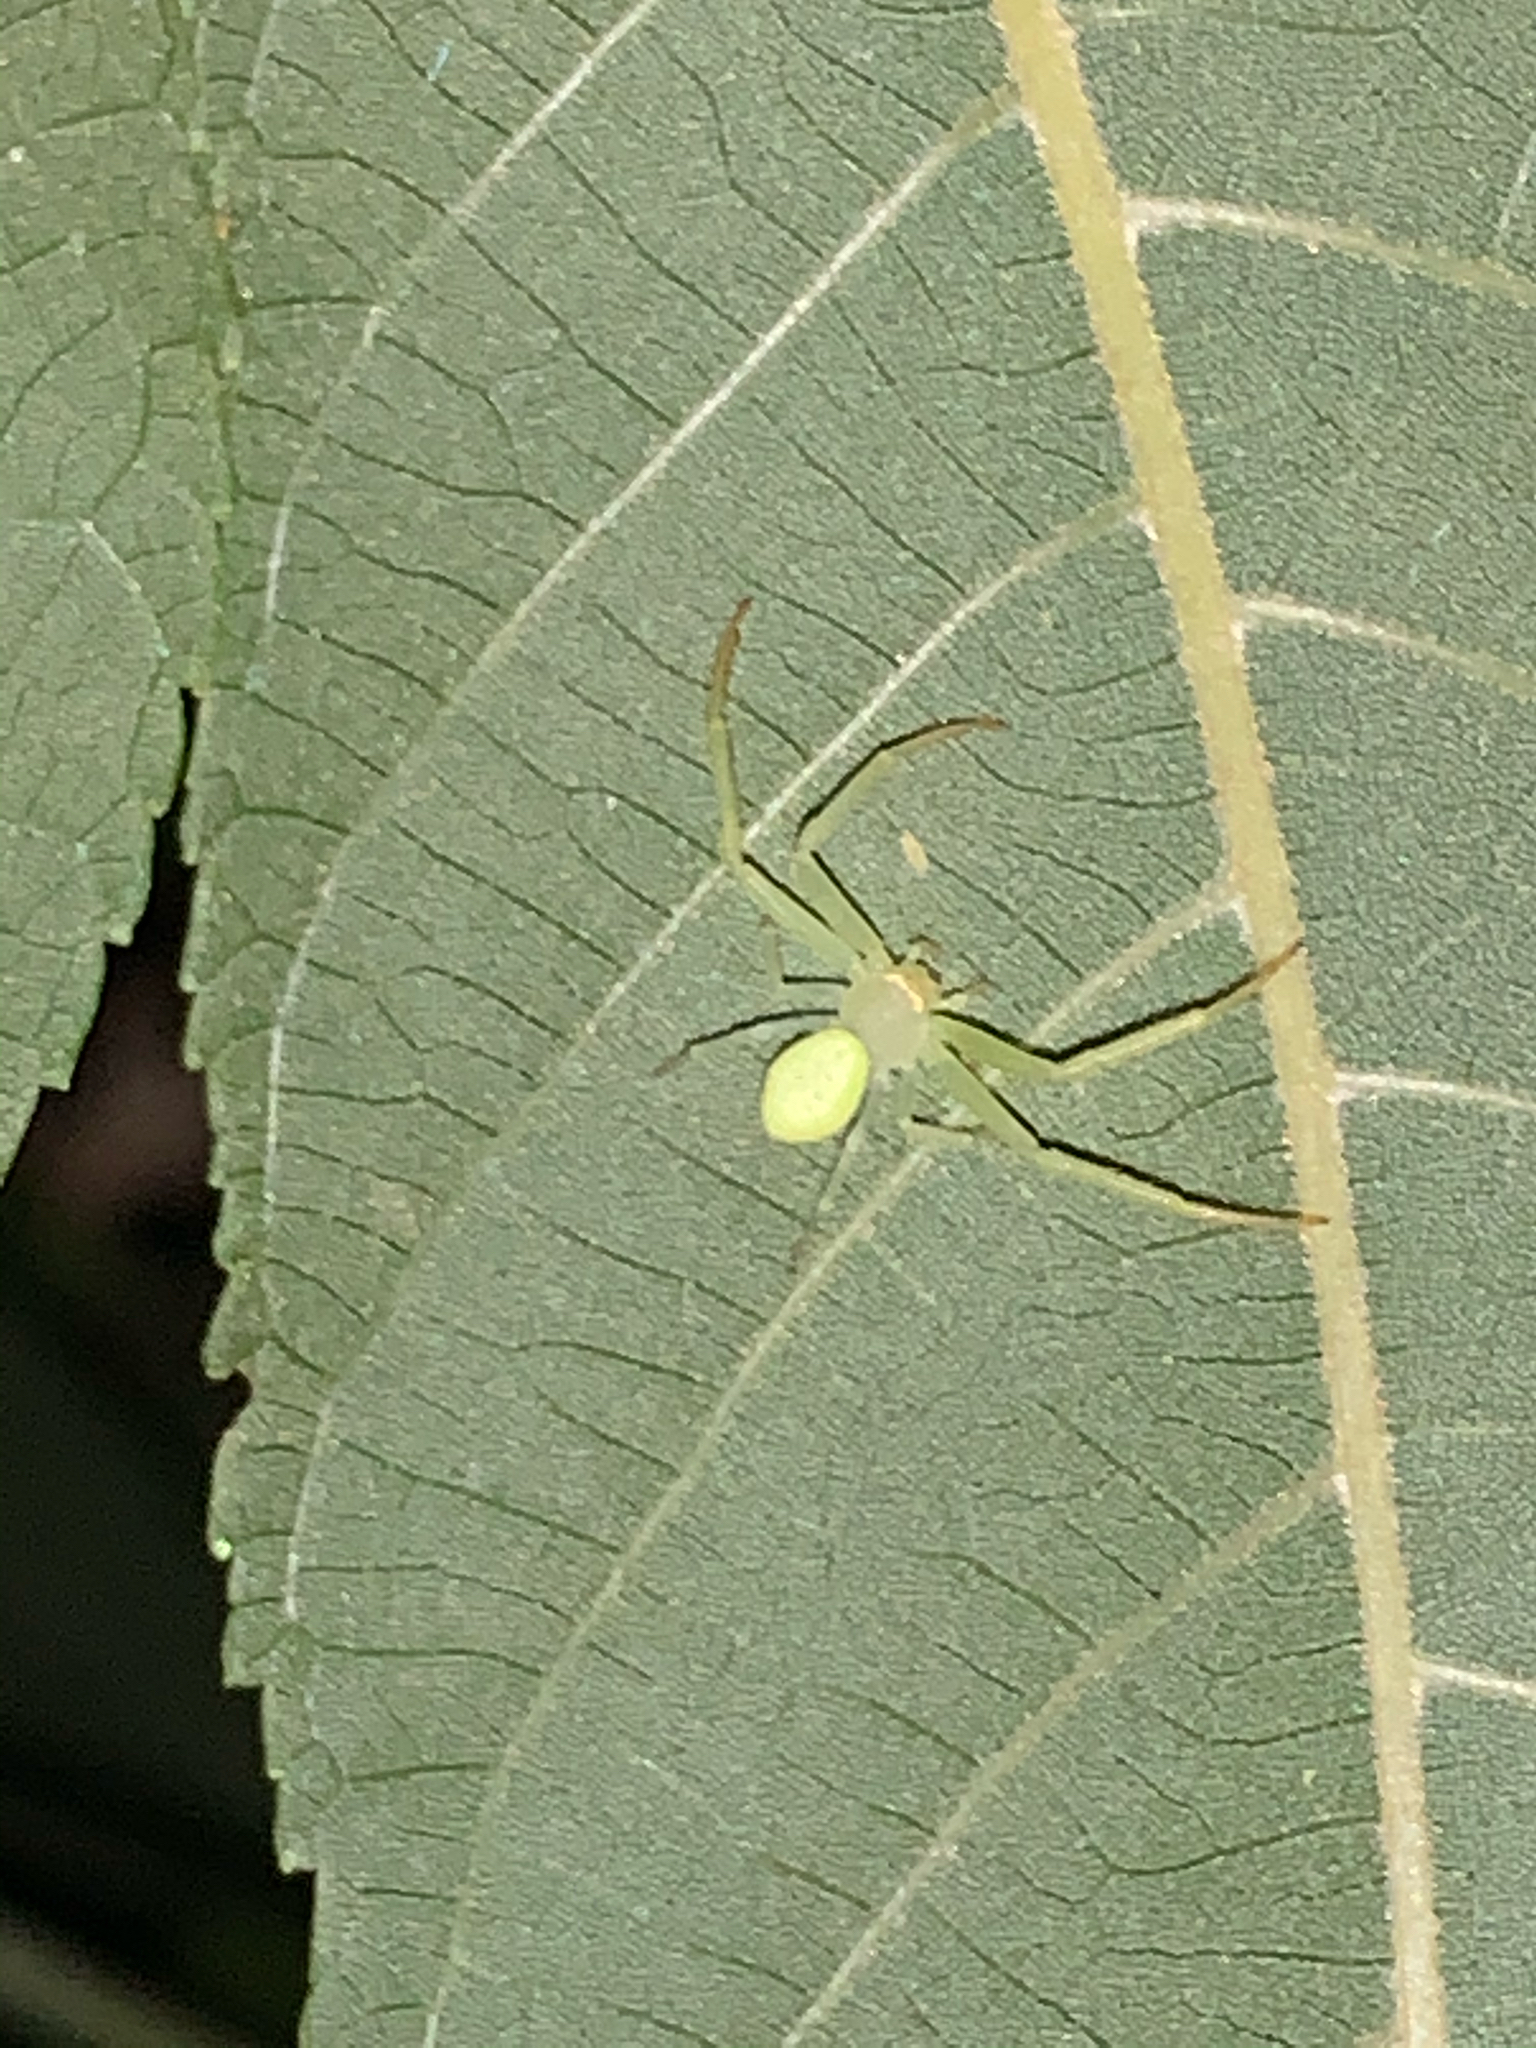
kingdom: Animalia
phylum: Arthropoda
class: Arachnida
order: Araneae
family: Thomisidae
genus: Misumessus
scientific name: Misumessus oblongus
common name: American green crab spider
